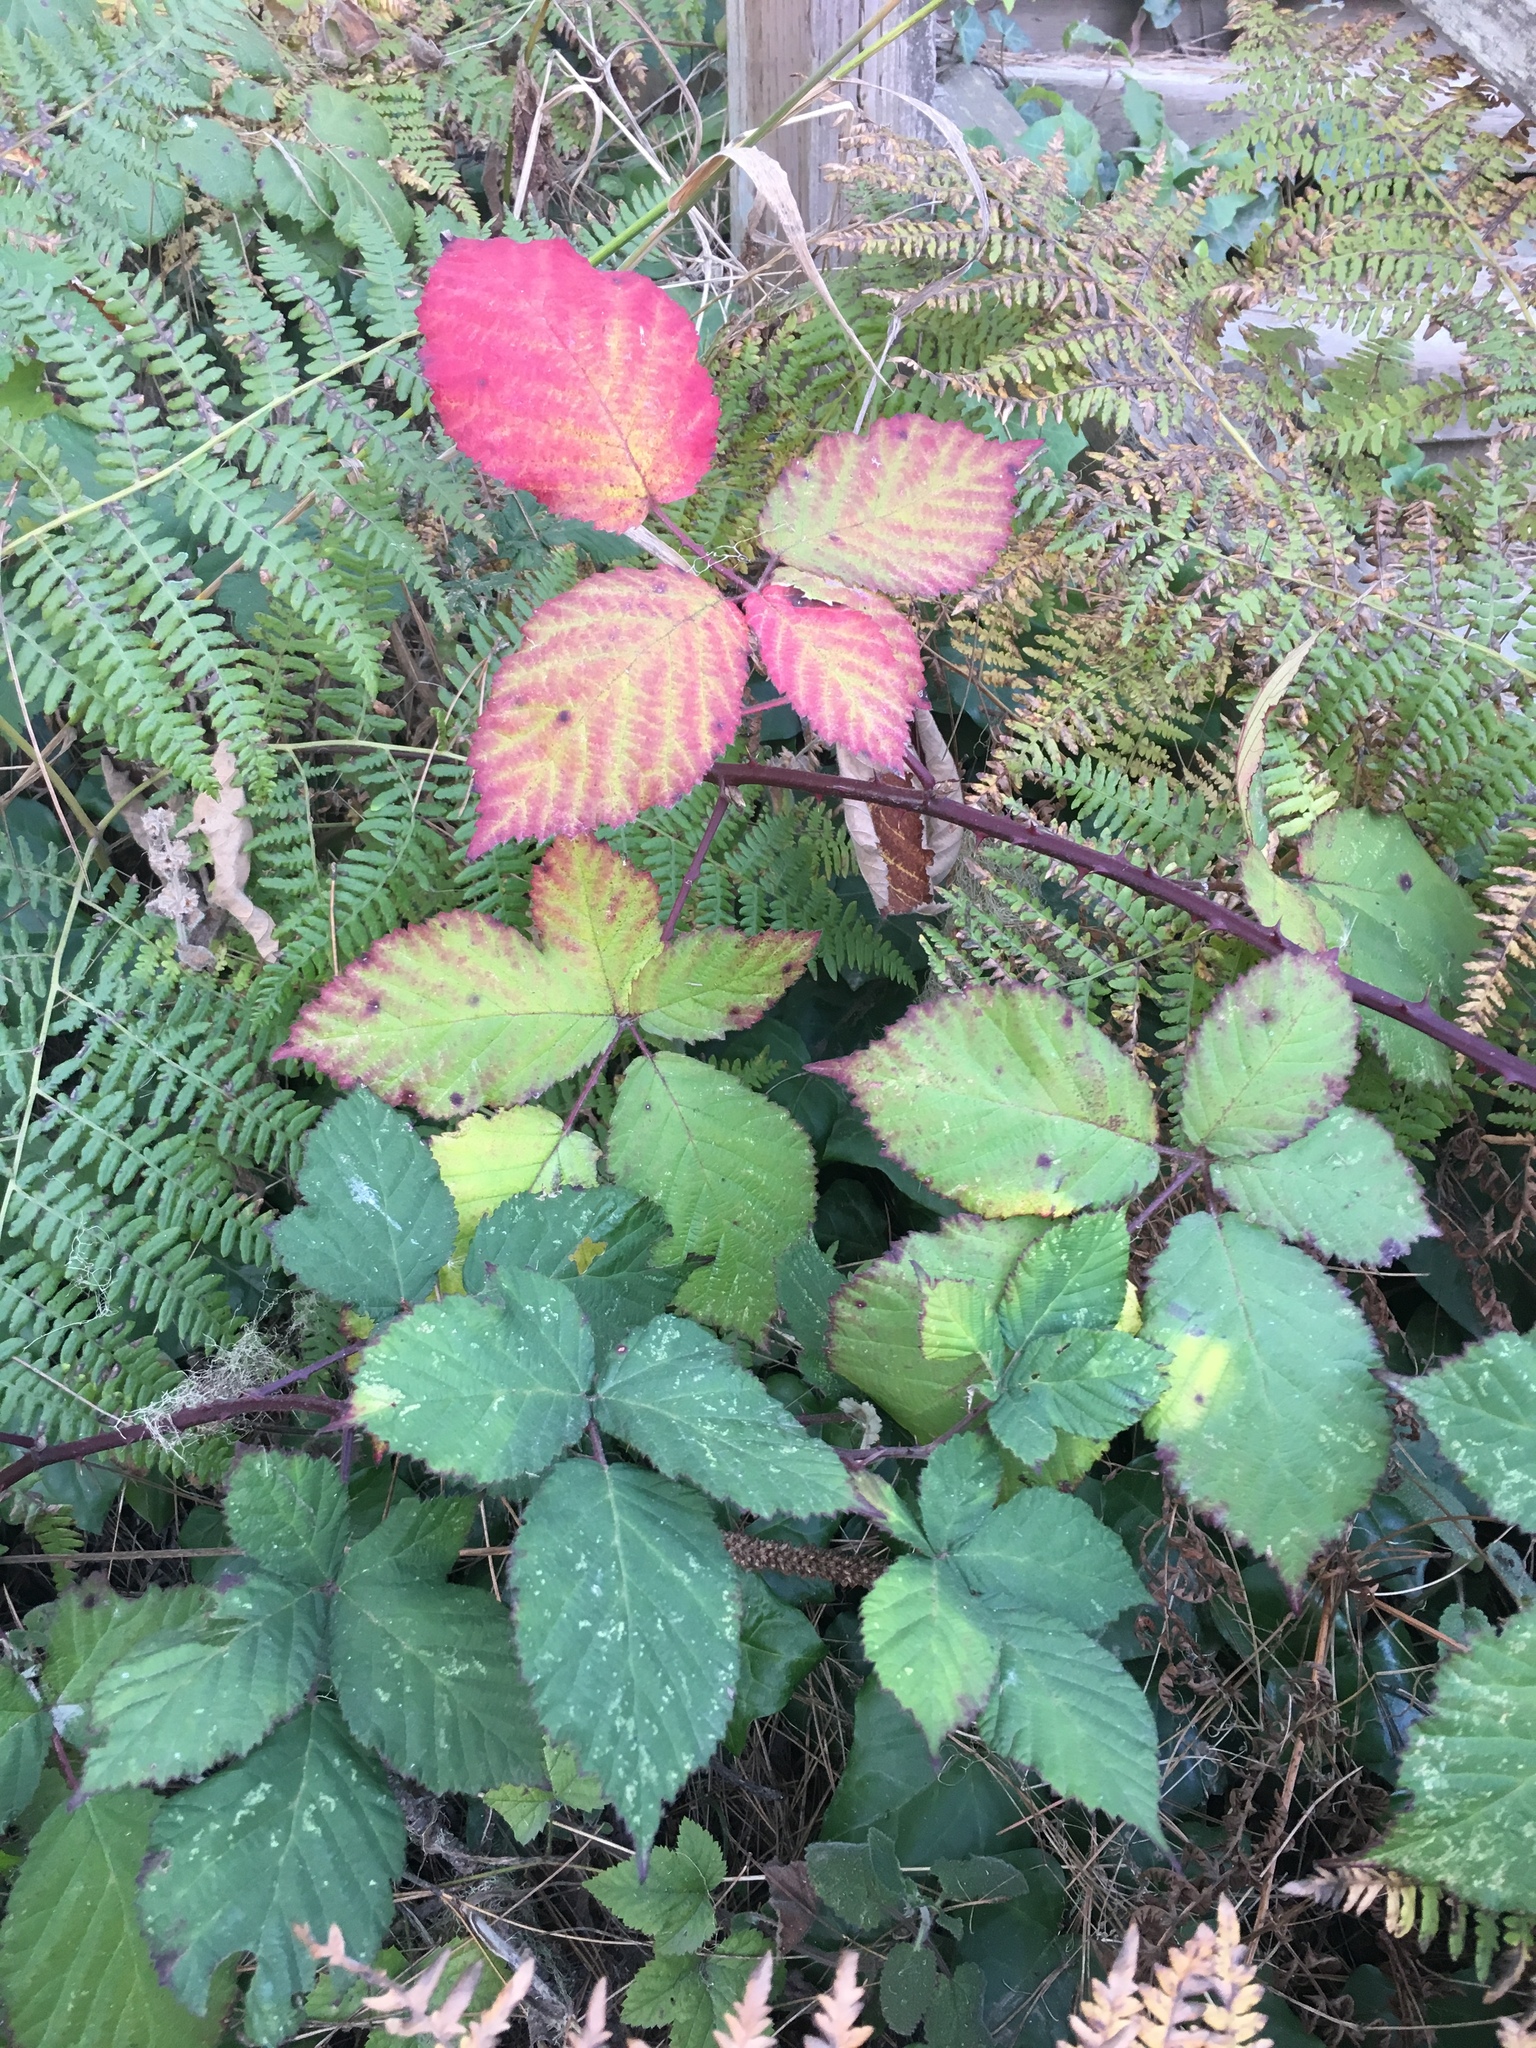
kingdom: Plantae
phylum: Tracheophyta
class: Magnoliopsida
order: Rosales
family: Rosaceae
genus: Rubus
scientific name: Rubus armeniacus
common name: Himalayan blackberry
